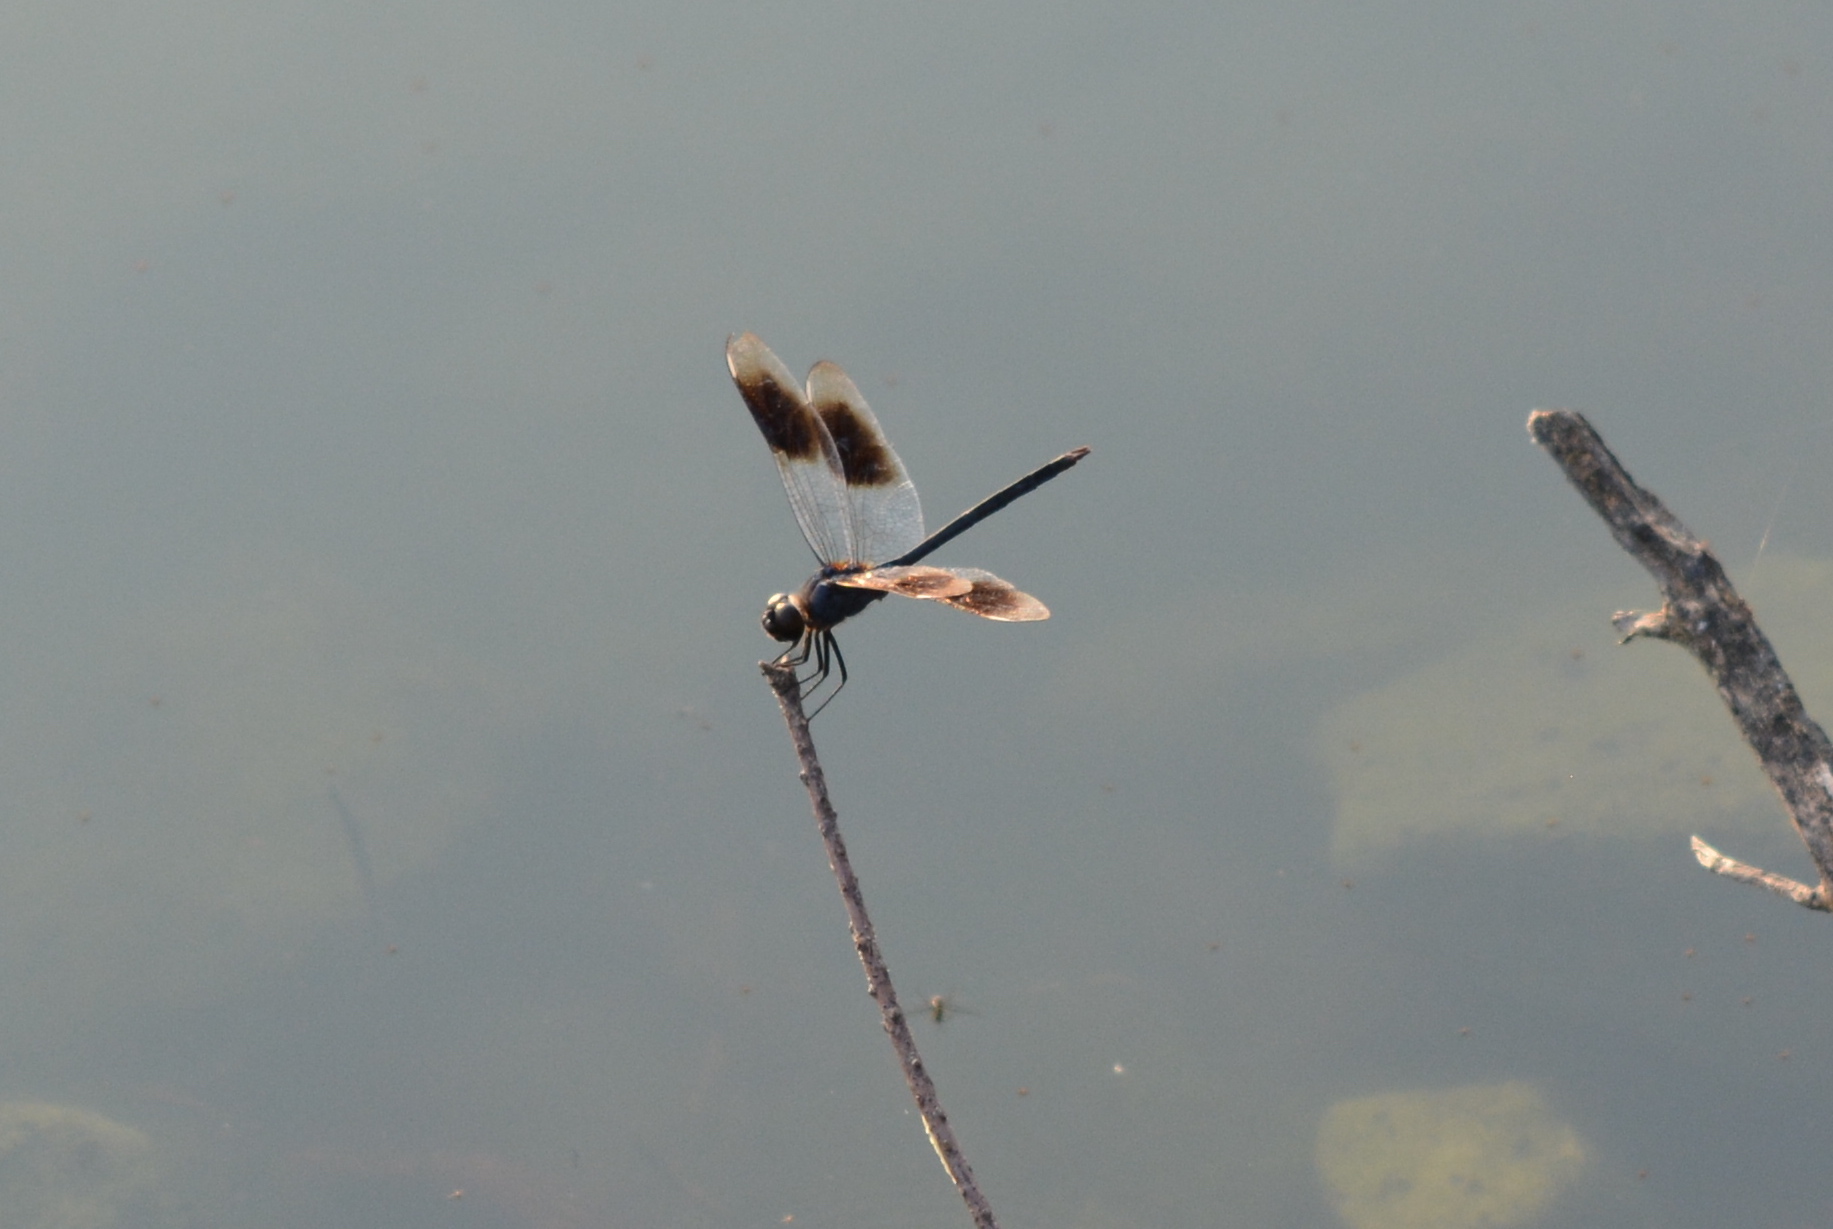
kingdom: Animalia
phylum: Arthropoda
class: Insecta
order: Odonata
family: Libellulidae
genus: Brachymesia
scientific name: Brachymesia gravida
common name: Four-spotted pennant
